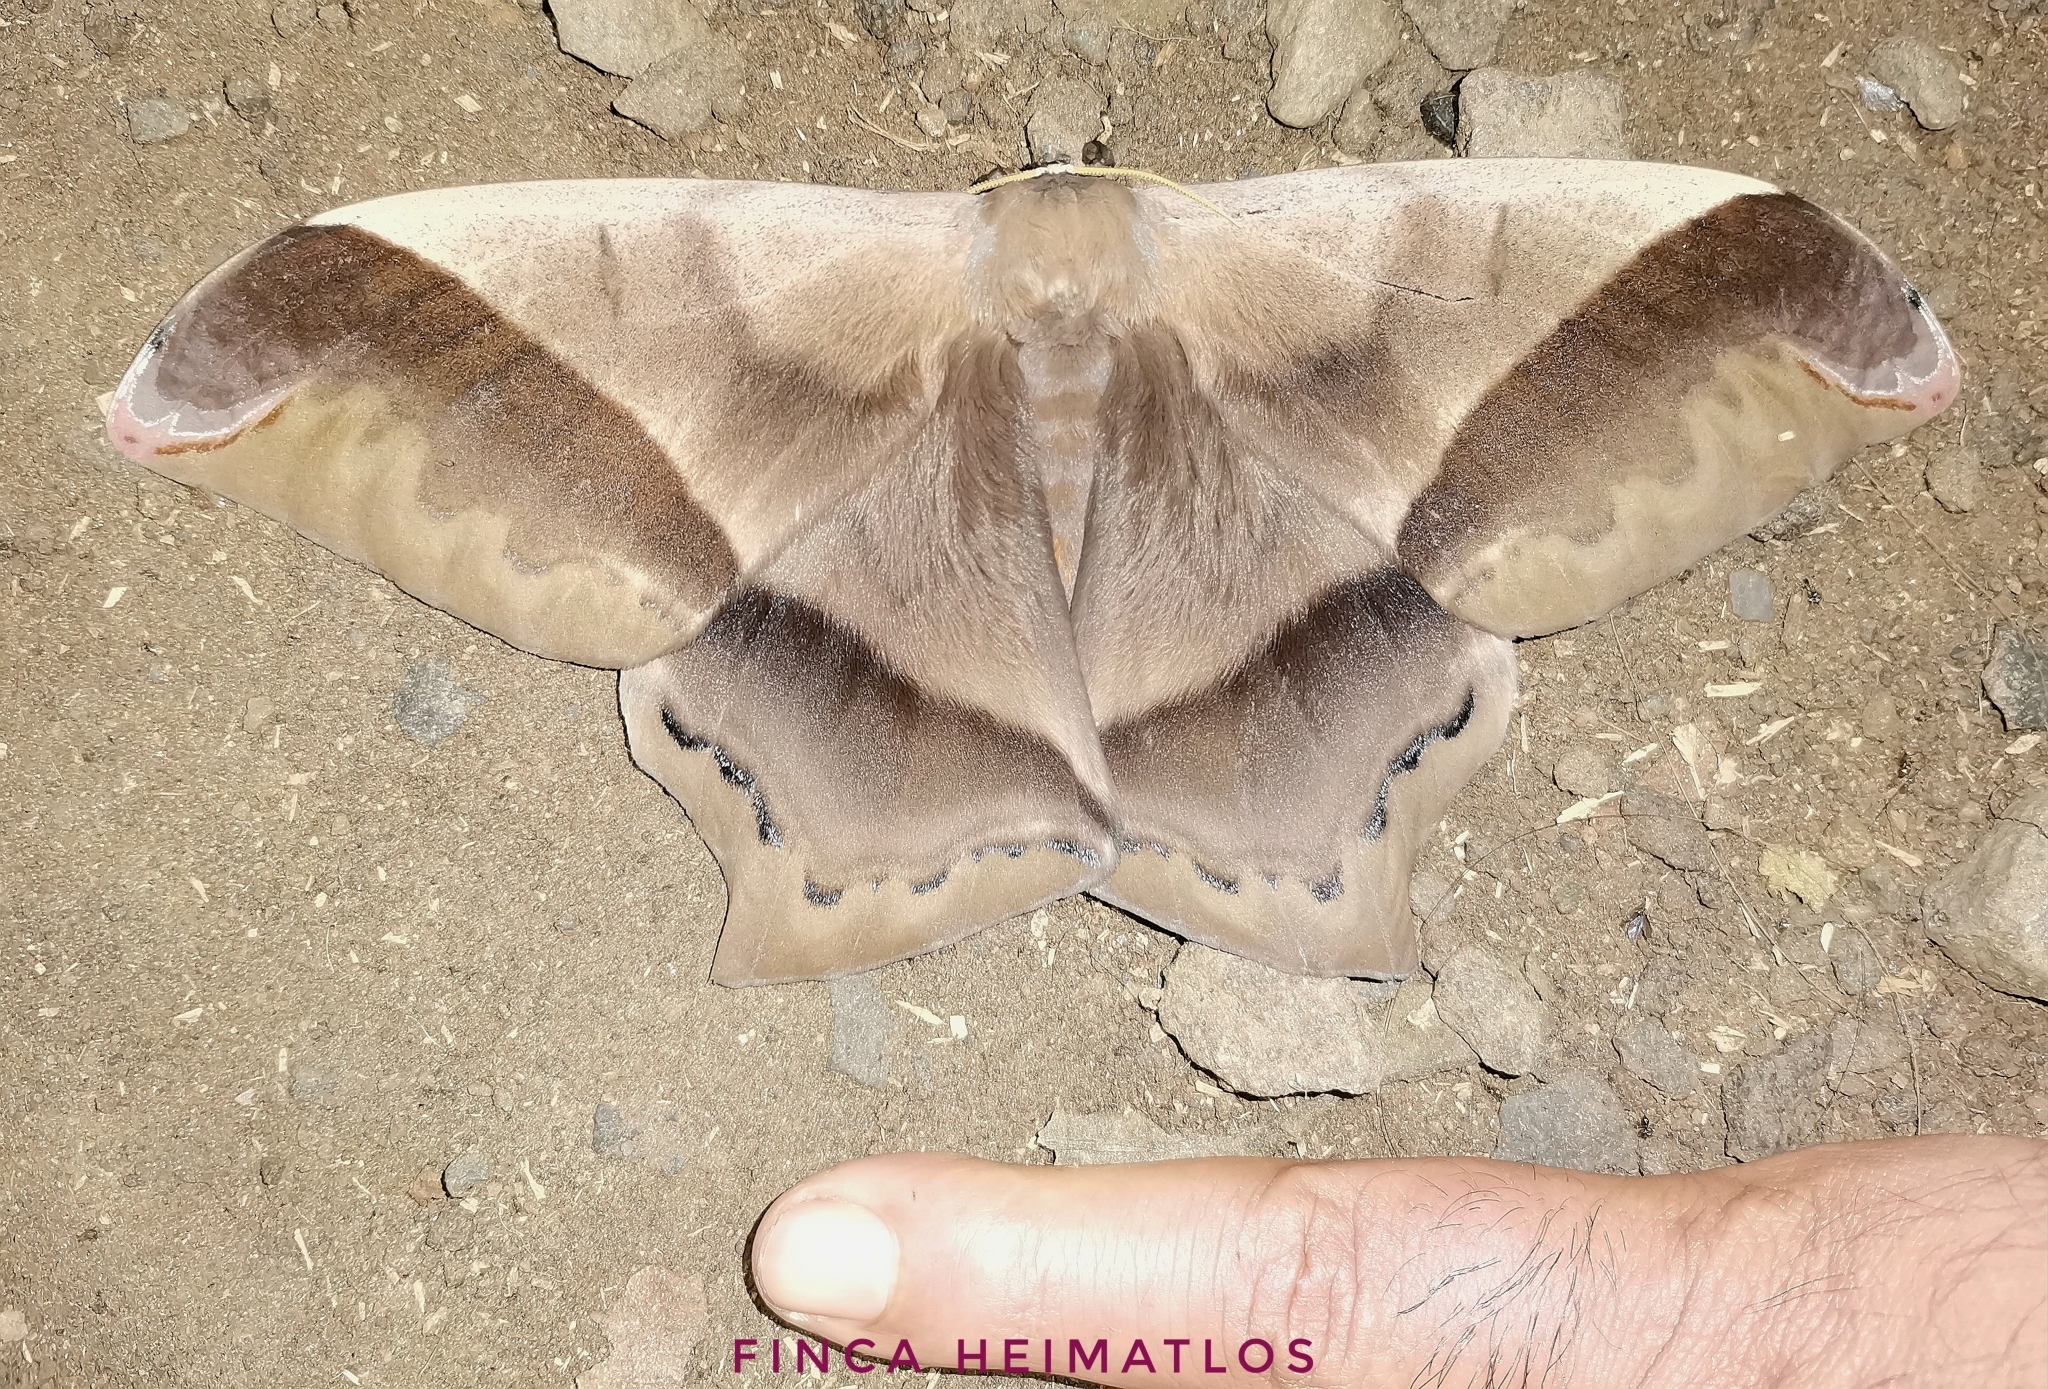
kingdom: Animalia
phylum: Arthropoda
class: Insecta
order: Lepidoptera
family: Saturniidae
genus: Arsenura
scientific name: Arsenura beebei
